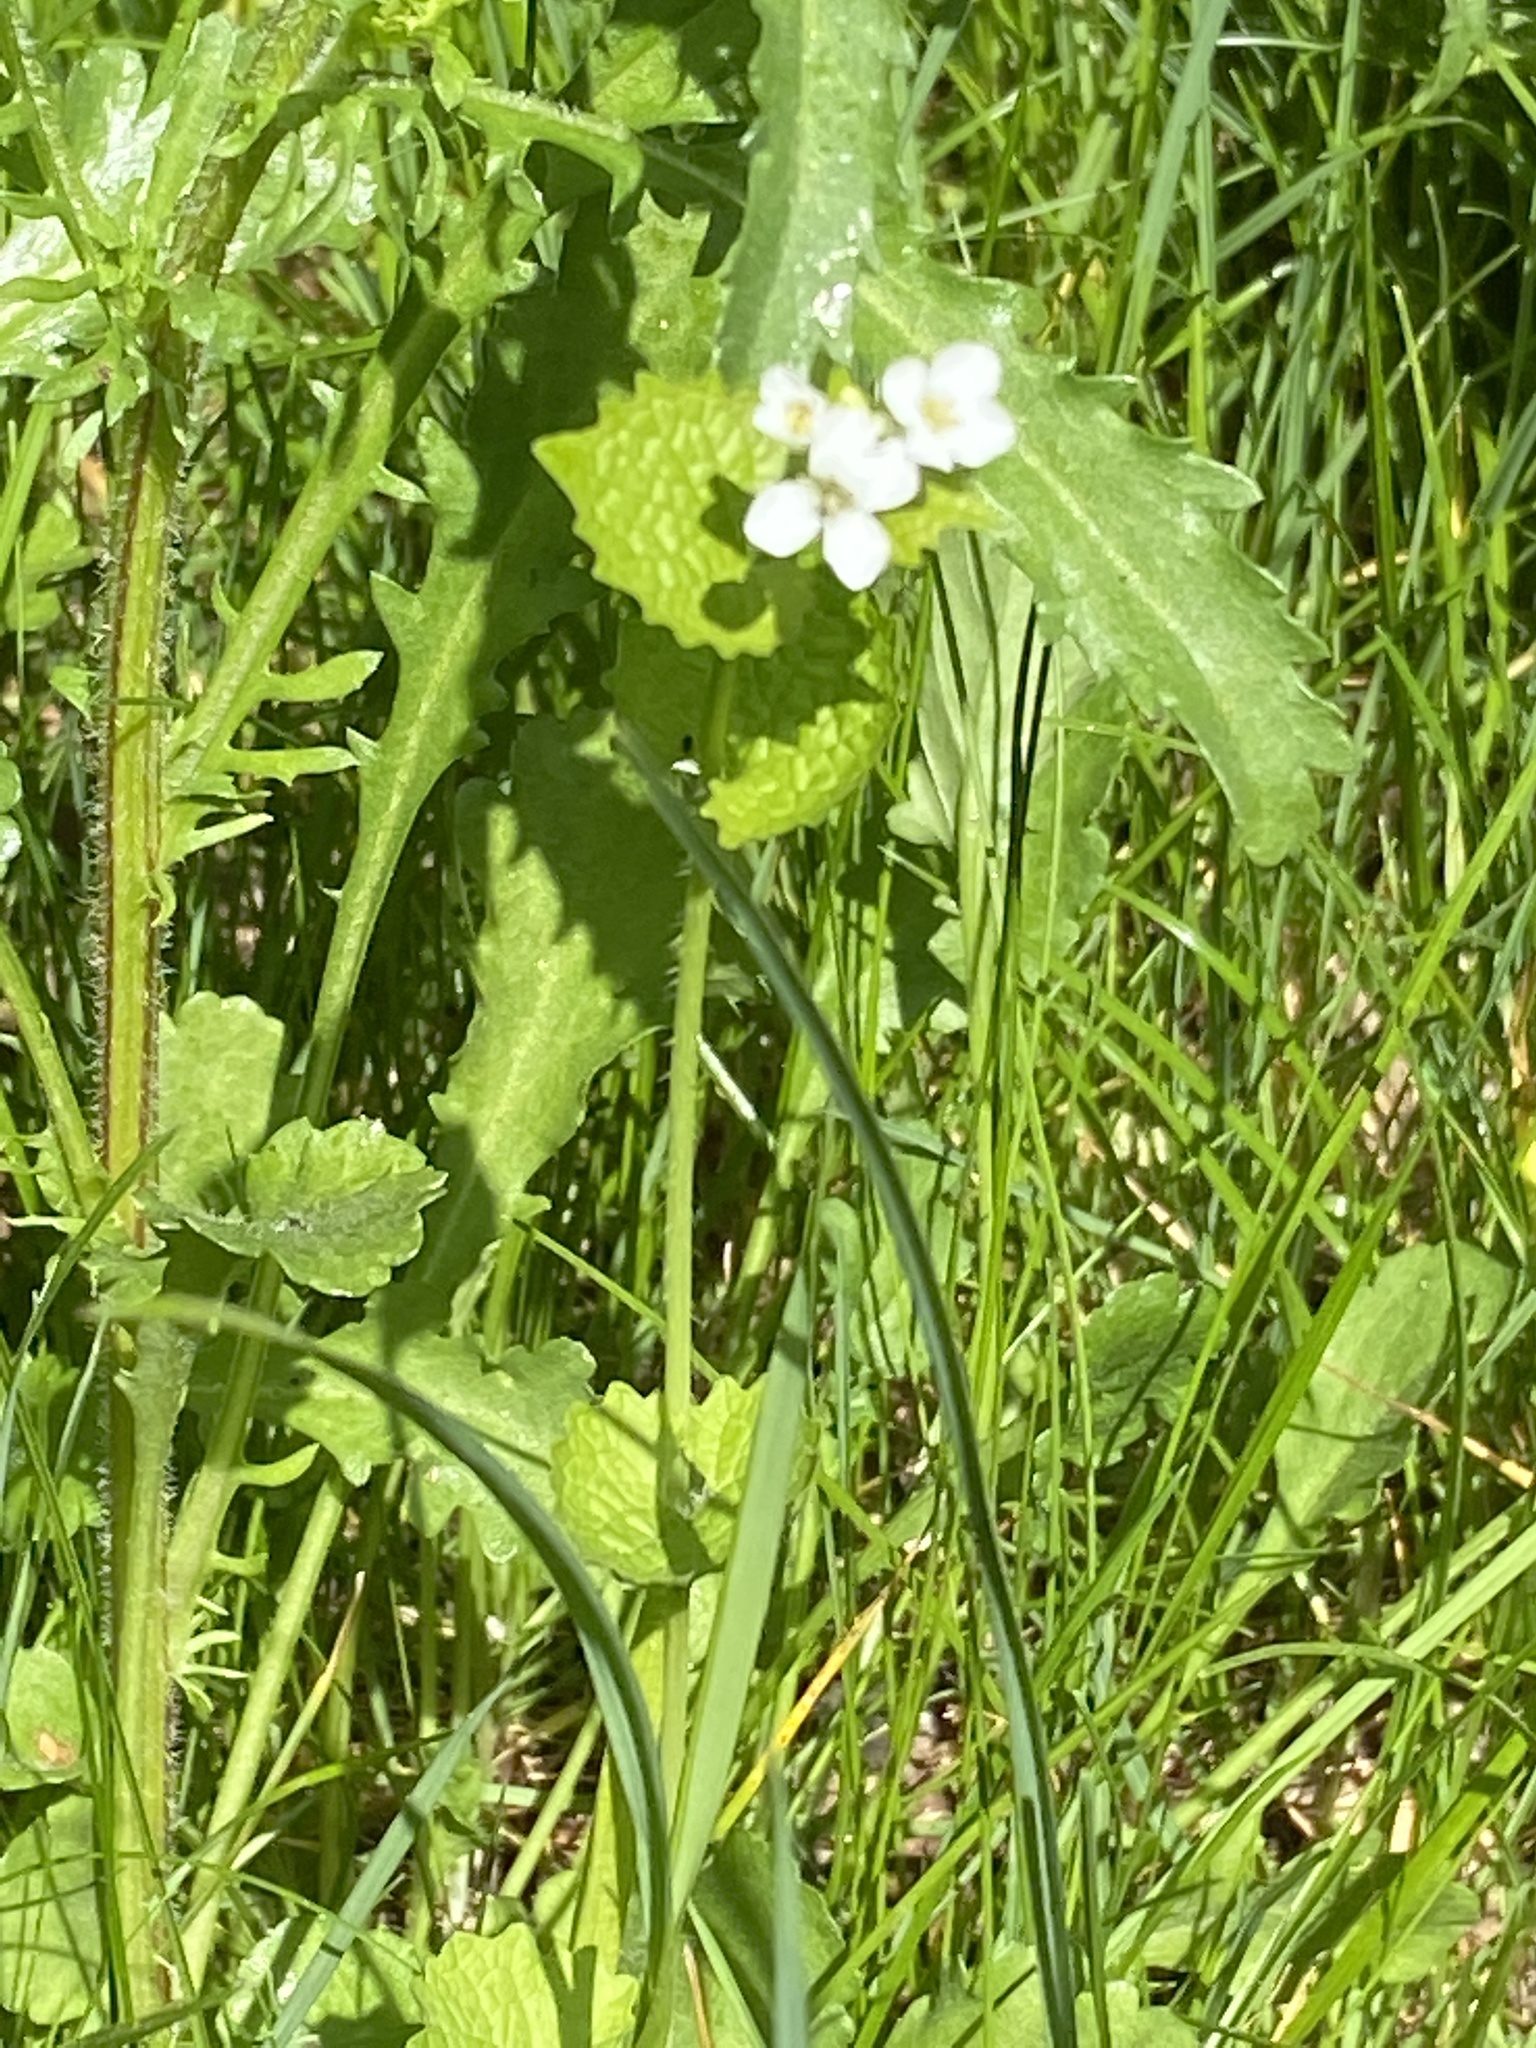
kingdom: Plantae
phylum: Tracheophyta
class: Magnoliopsida
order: Brassicales
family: Brassicaceae
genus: Alliaria
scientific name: Alliaria petiolata
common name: Garlic mustard
